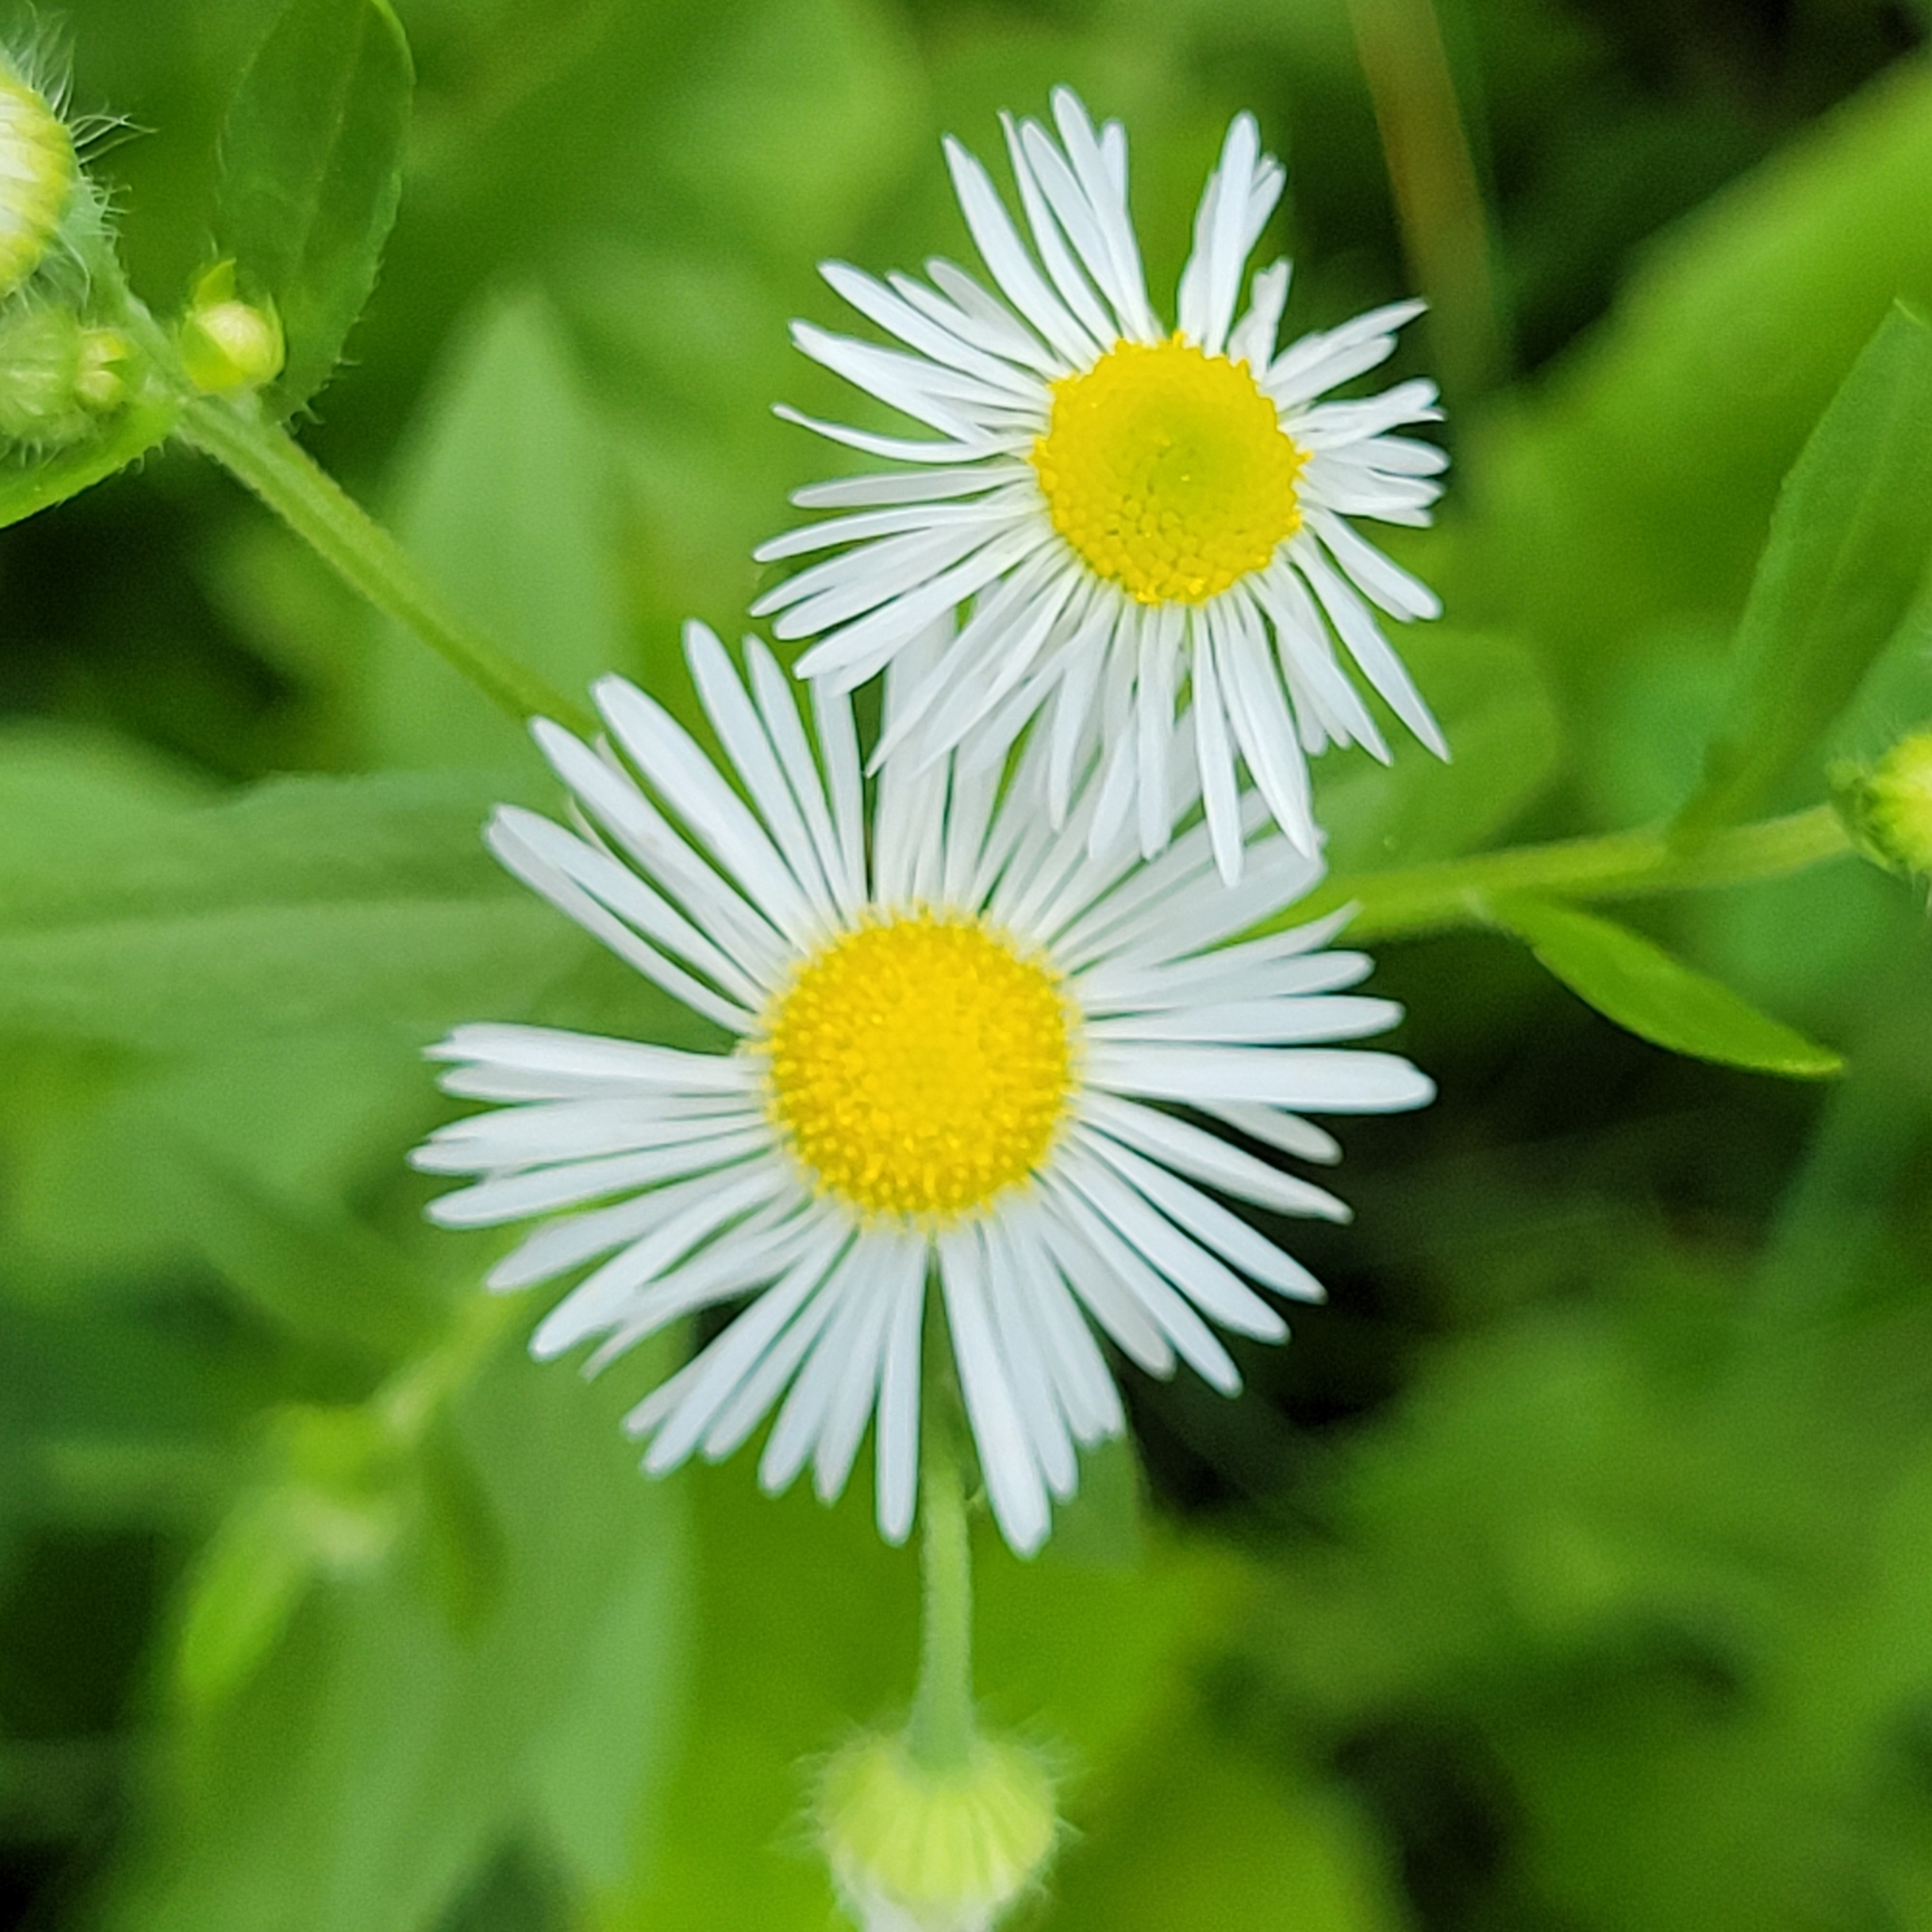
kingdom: Plantae
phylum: Tracheophyta
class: Magnoliopsida
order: Asterales
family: Asteraceae
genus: Erigeron
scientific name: Erigeron strigosus
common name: Common eastern fleabane
